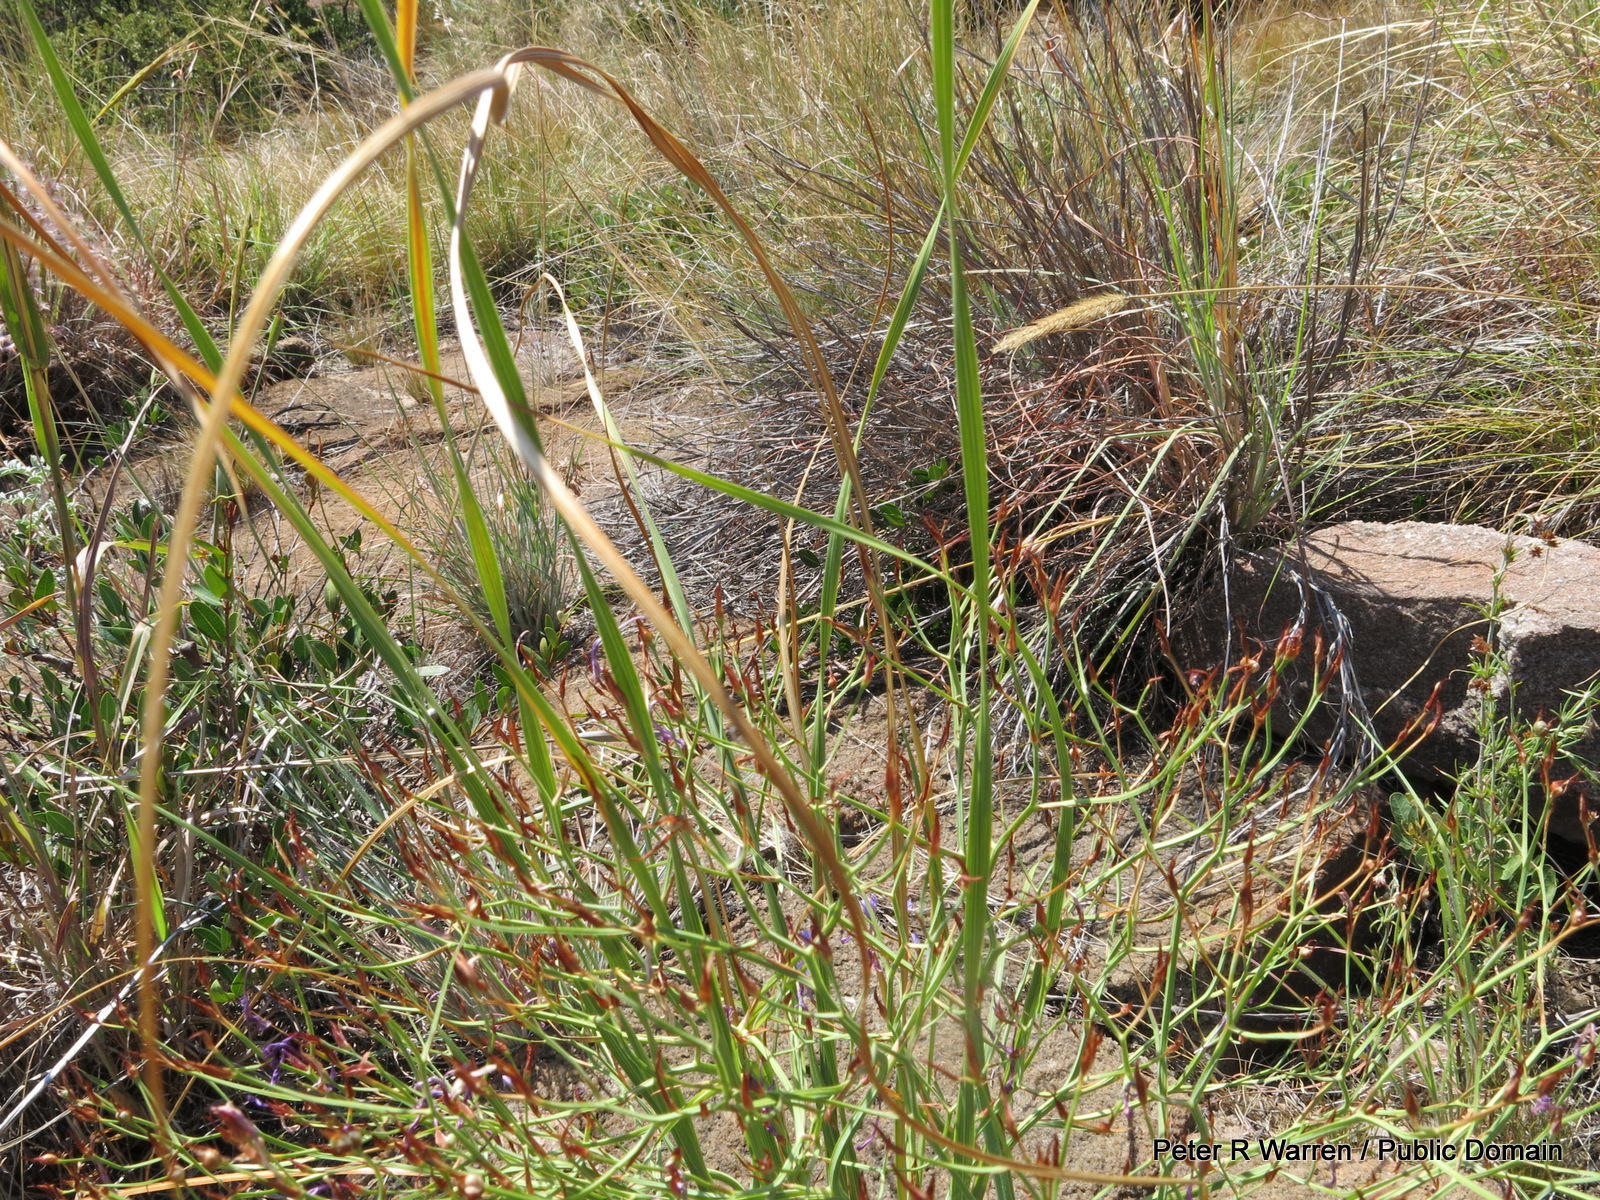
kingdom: Plantae
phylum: Tracheophyta
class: Liliopsida
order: Asparagales
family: Iridaceae
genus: Afrosolen
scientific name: Afrosolen sandersonii
